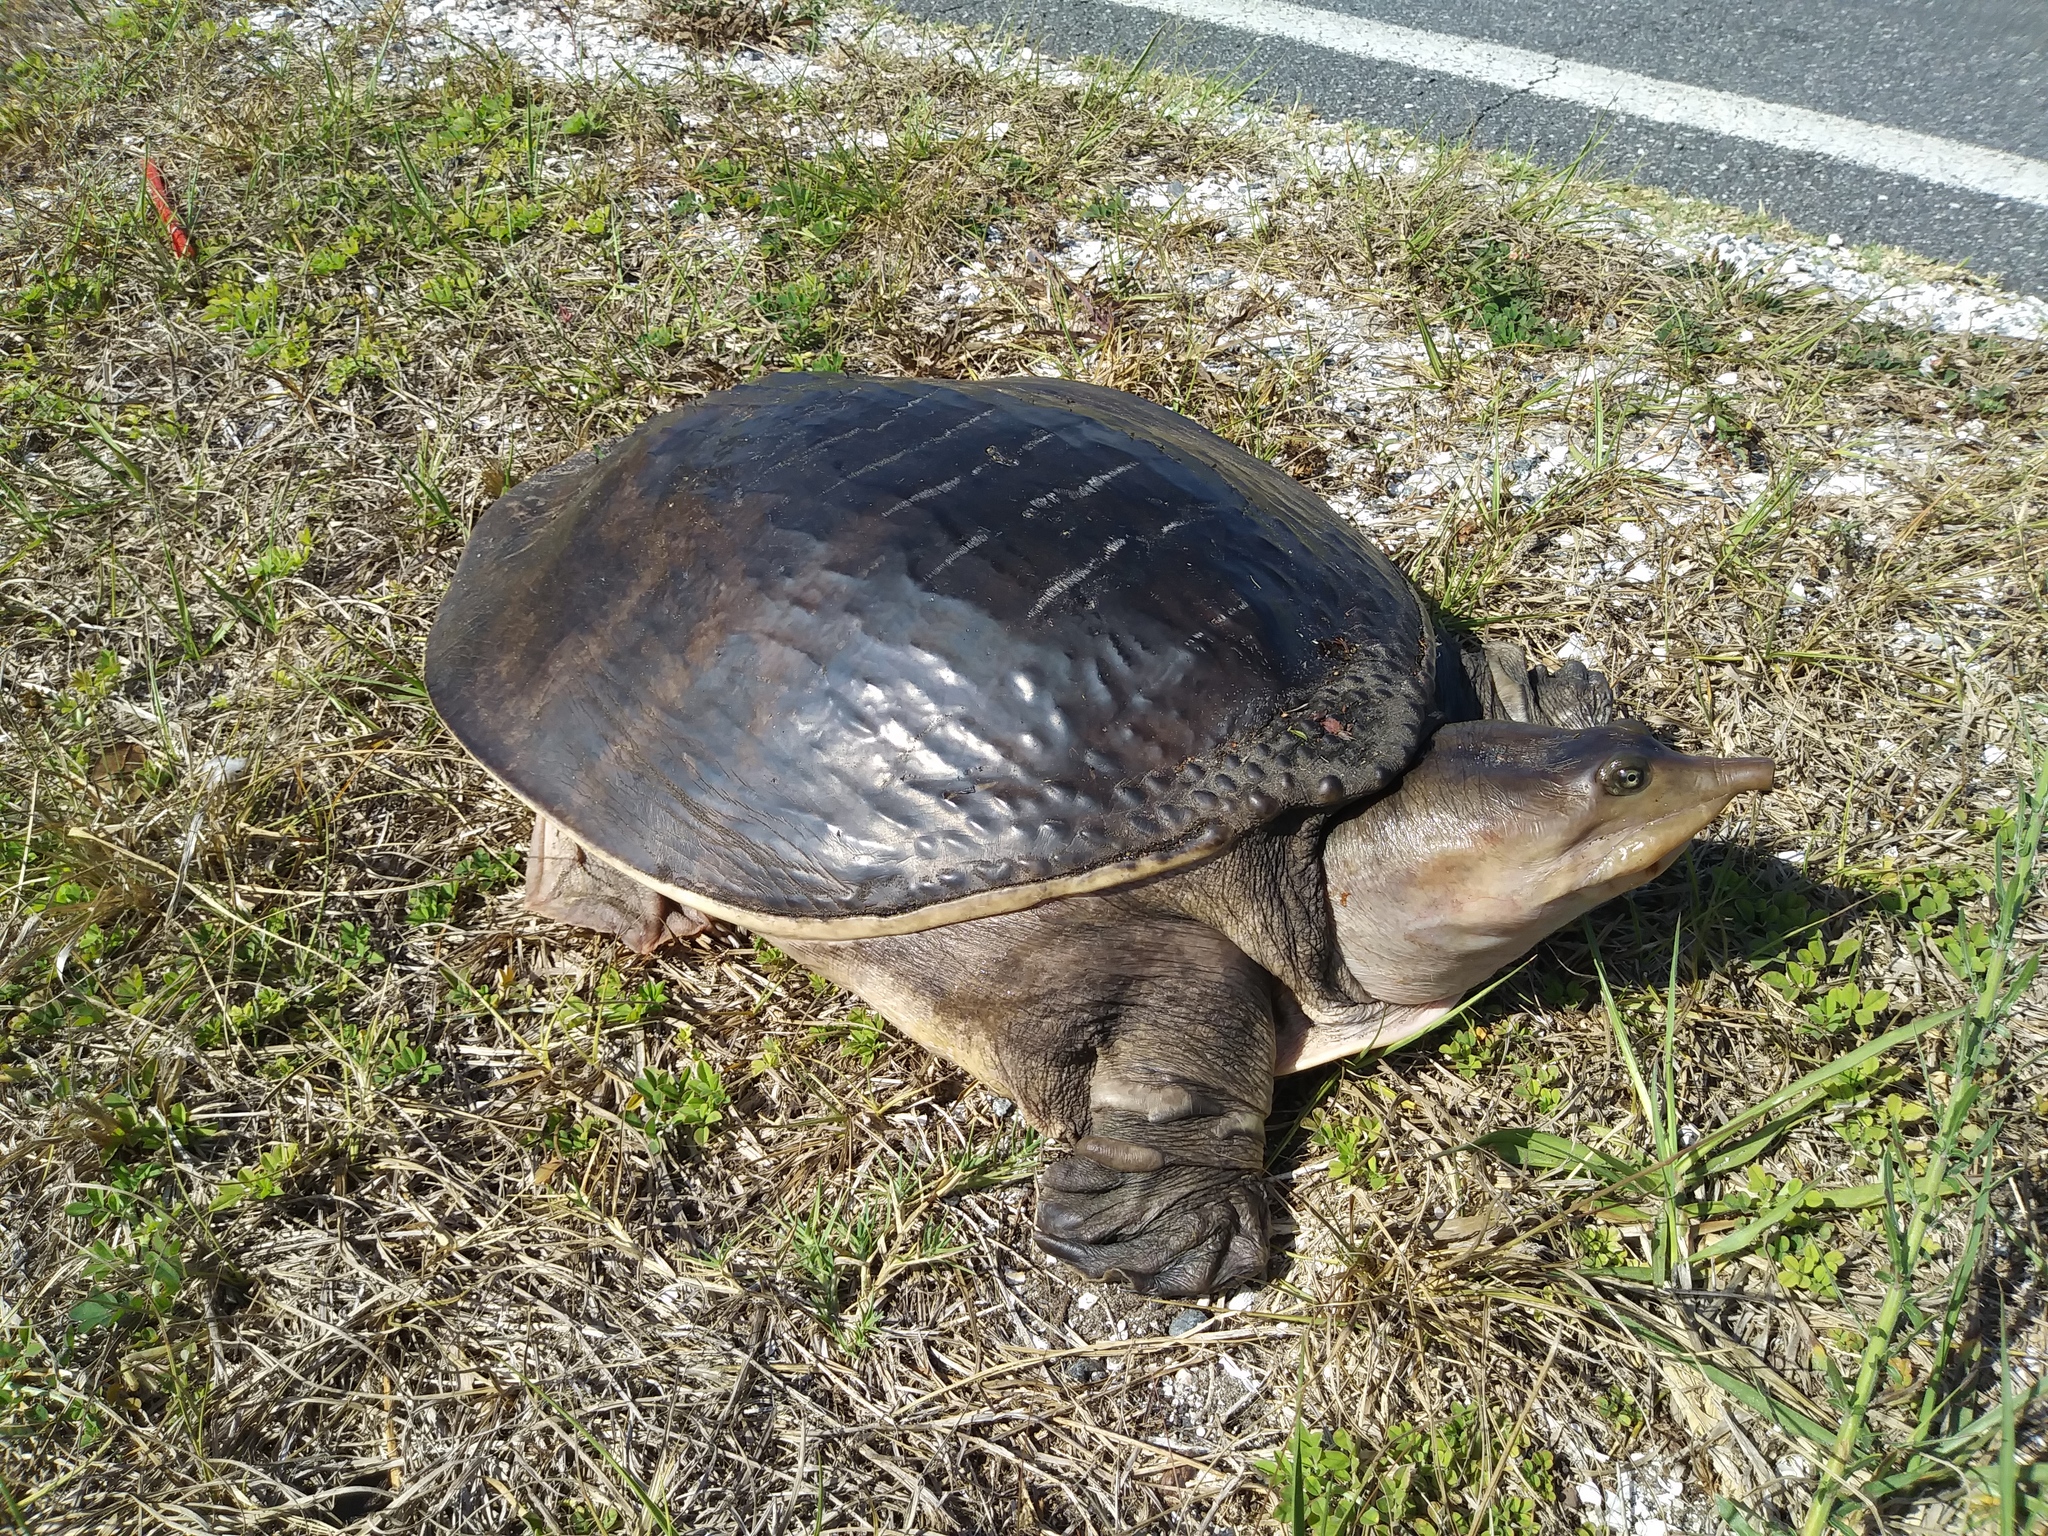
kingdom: Animalia
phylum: Chordata
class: Testudines
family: Trionychidae
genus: Apalone
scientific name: Apalone ferox
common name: Florida softshell turtle
